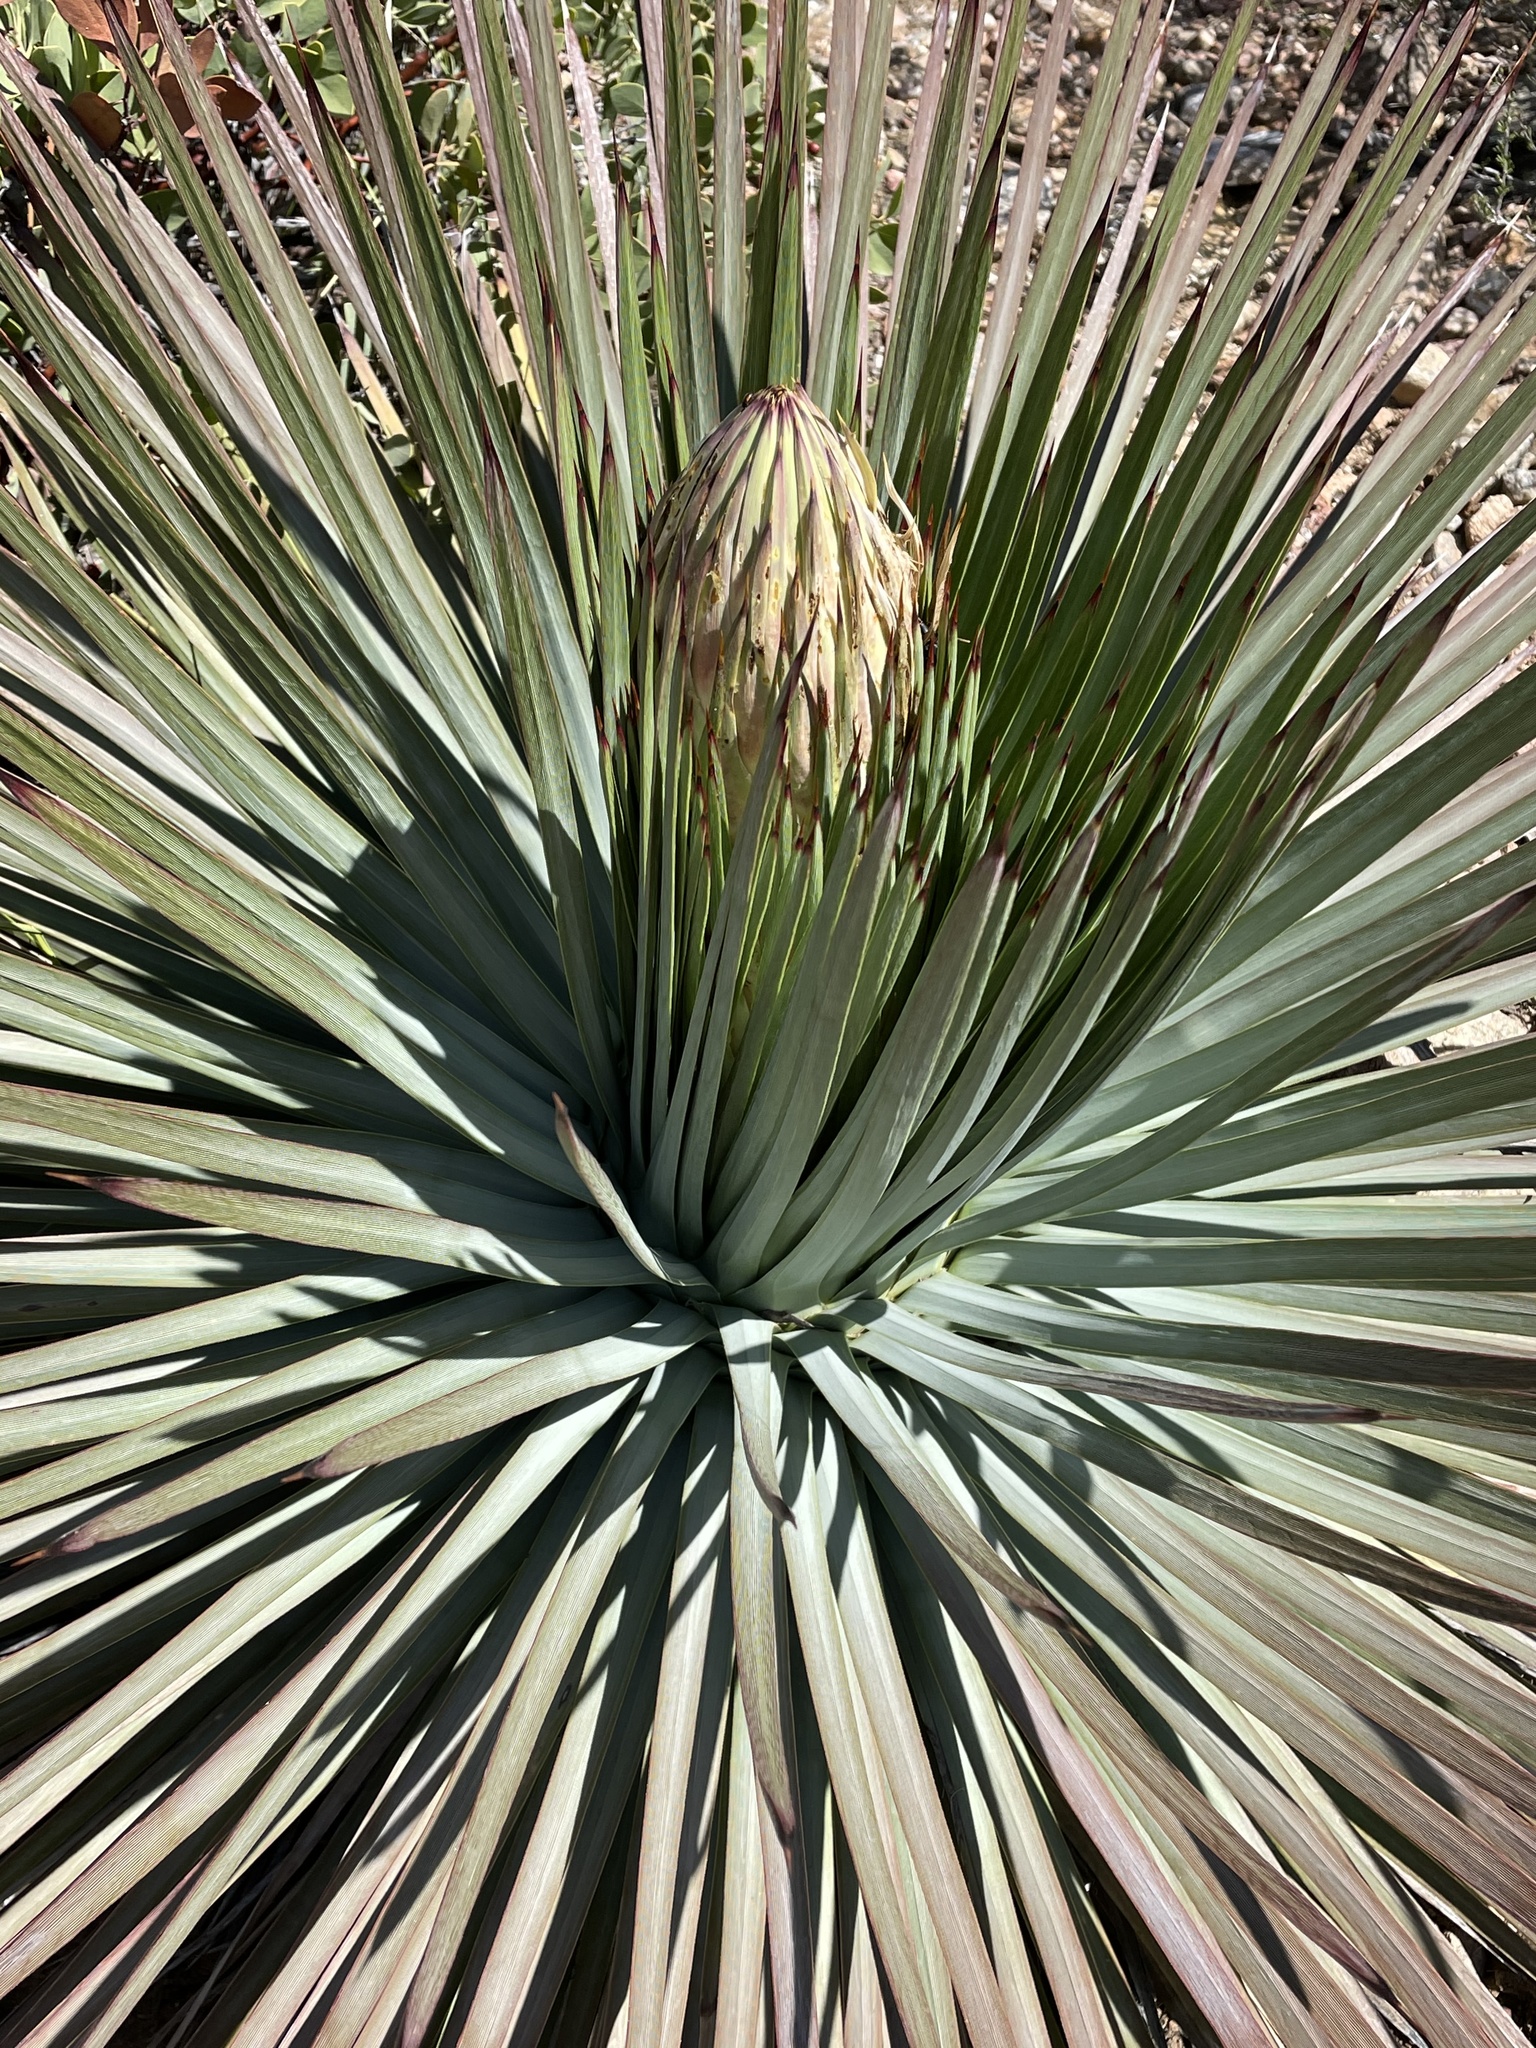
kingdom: Plantae
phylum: Tracheophyta
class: Liliopsida
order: Asparagales
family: Asparagaceae
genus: Hesperoyucca
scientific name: Hesperoyucca whipplei
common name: Our lord's-candle
